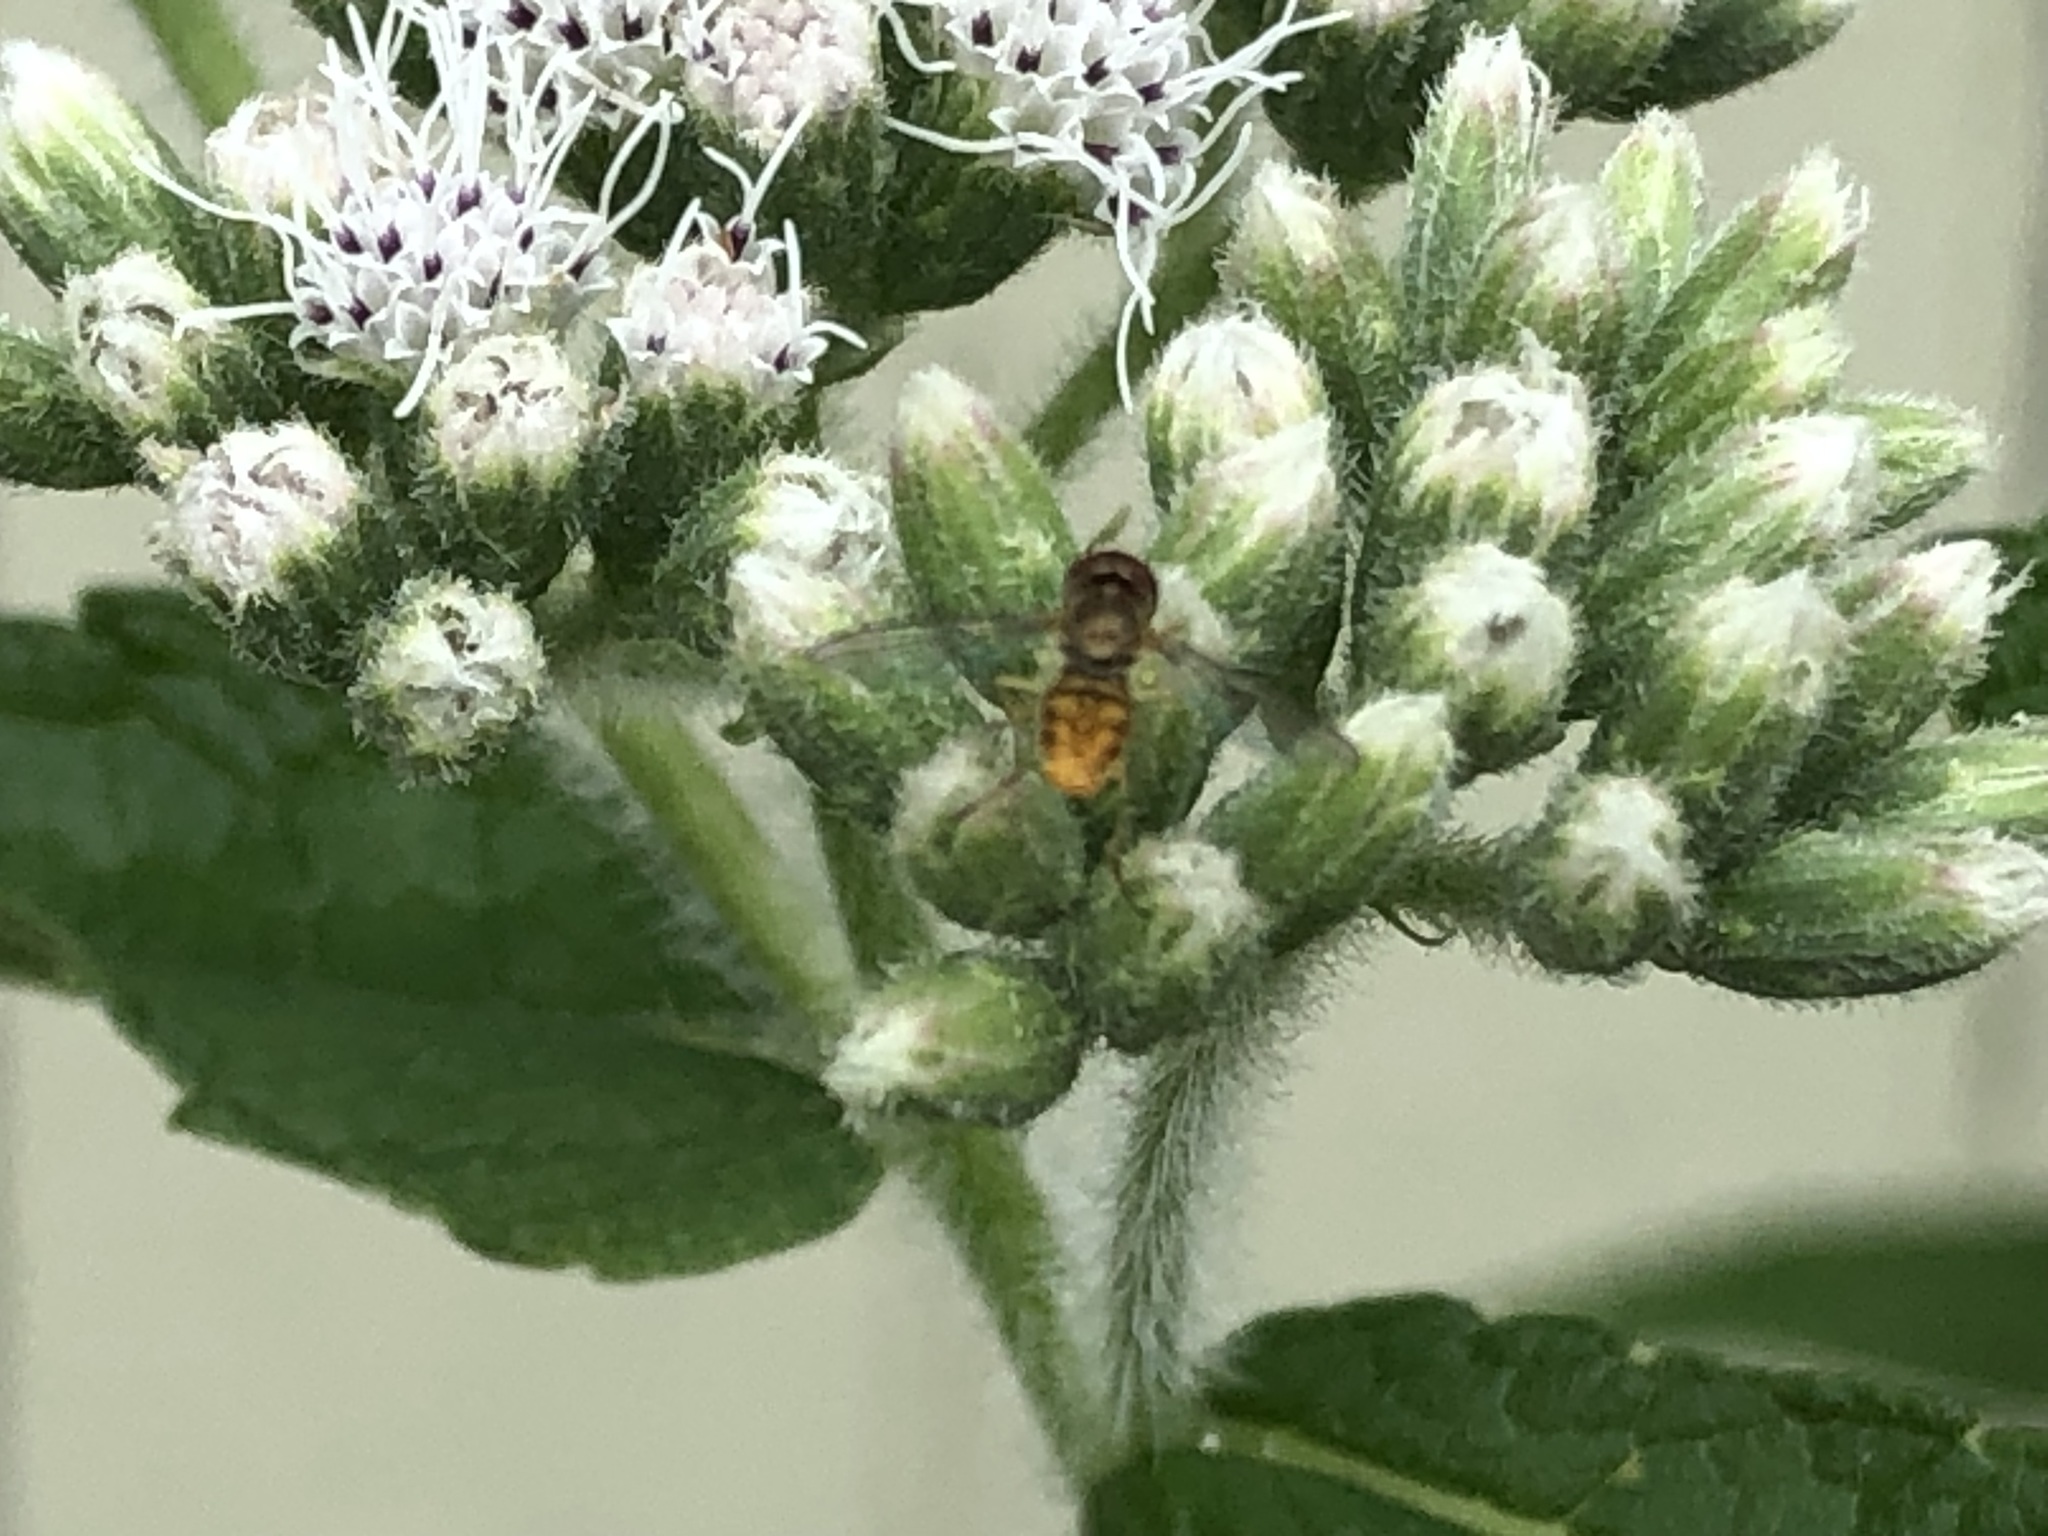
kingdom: Animalia
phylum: Arthropoda
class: Insecta
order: Diptera
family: Syrphidae
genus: Toxomerus
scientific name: Toxomerus marginatus
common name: Syrphid fly
